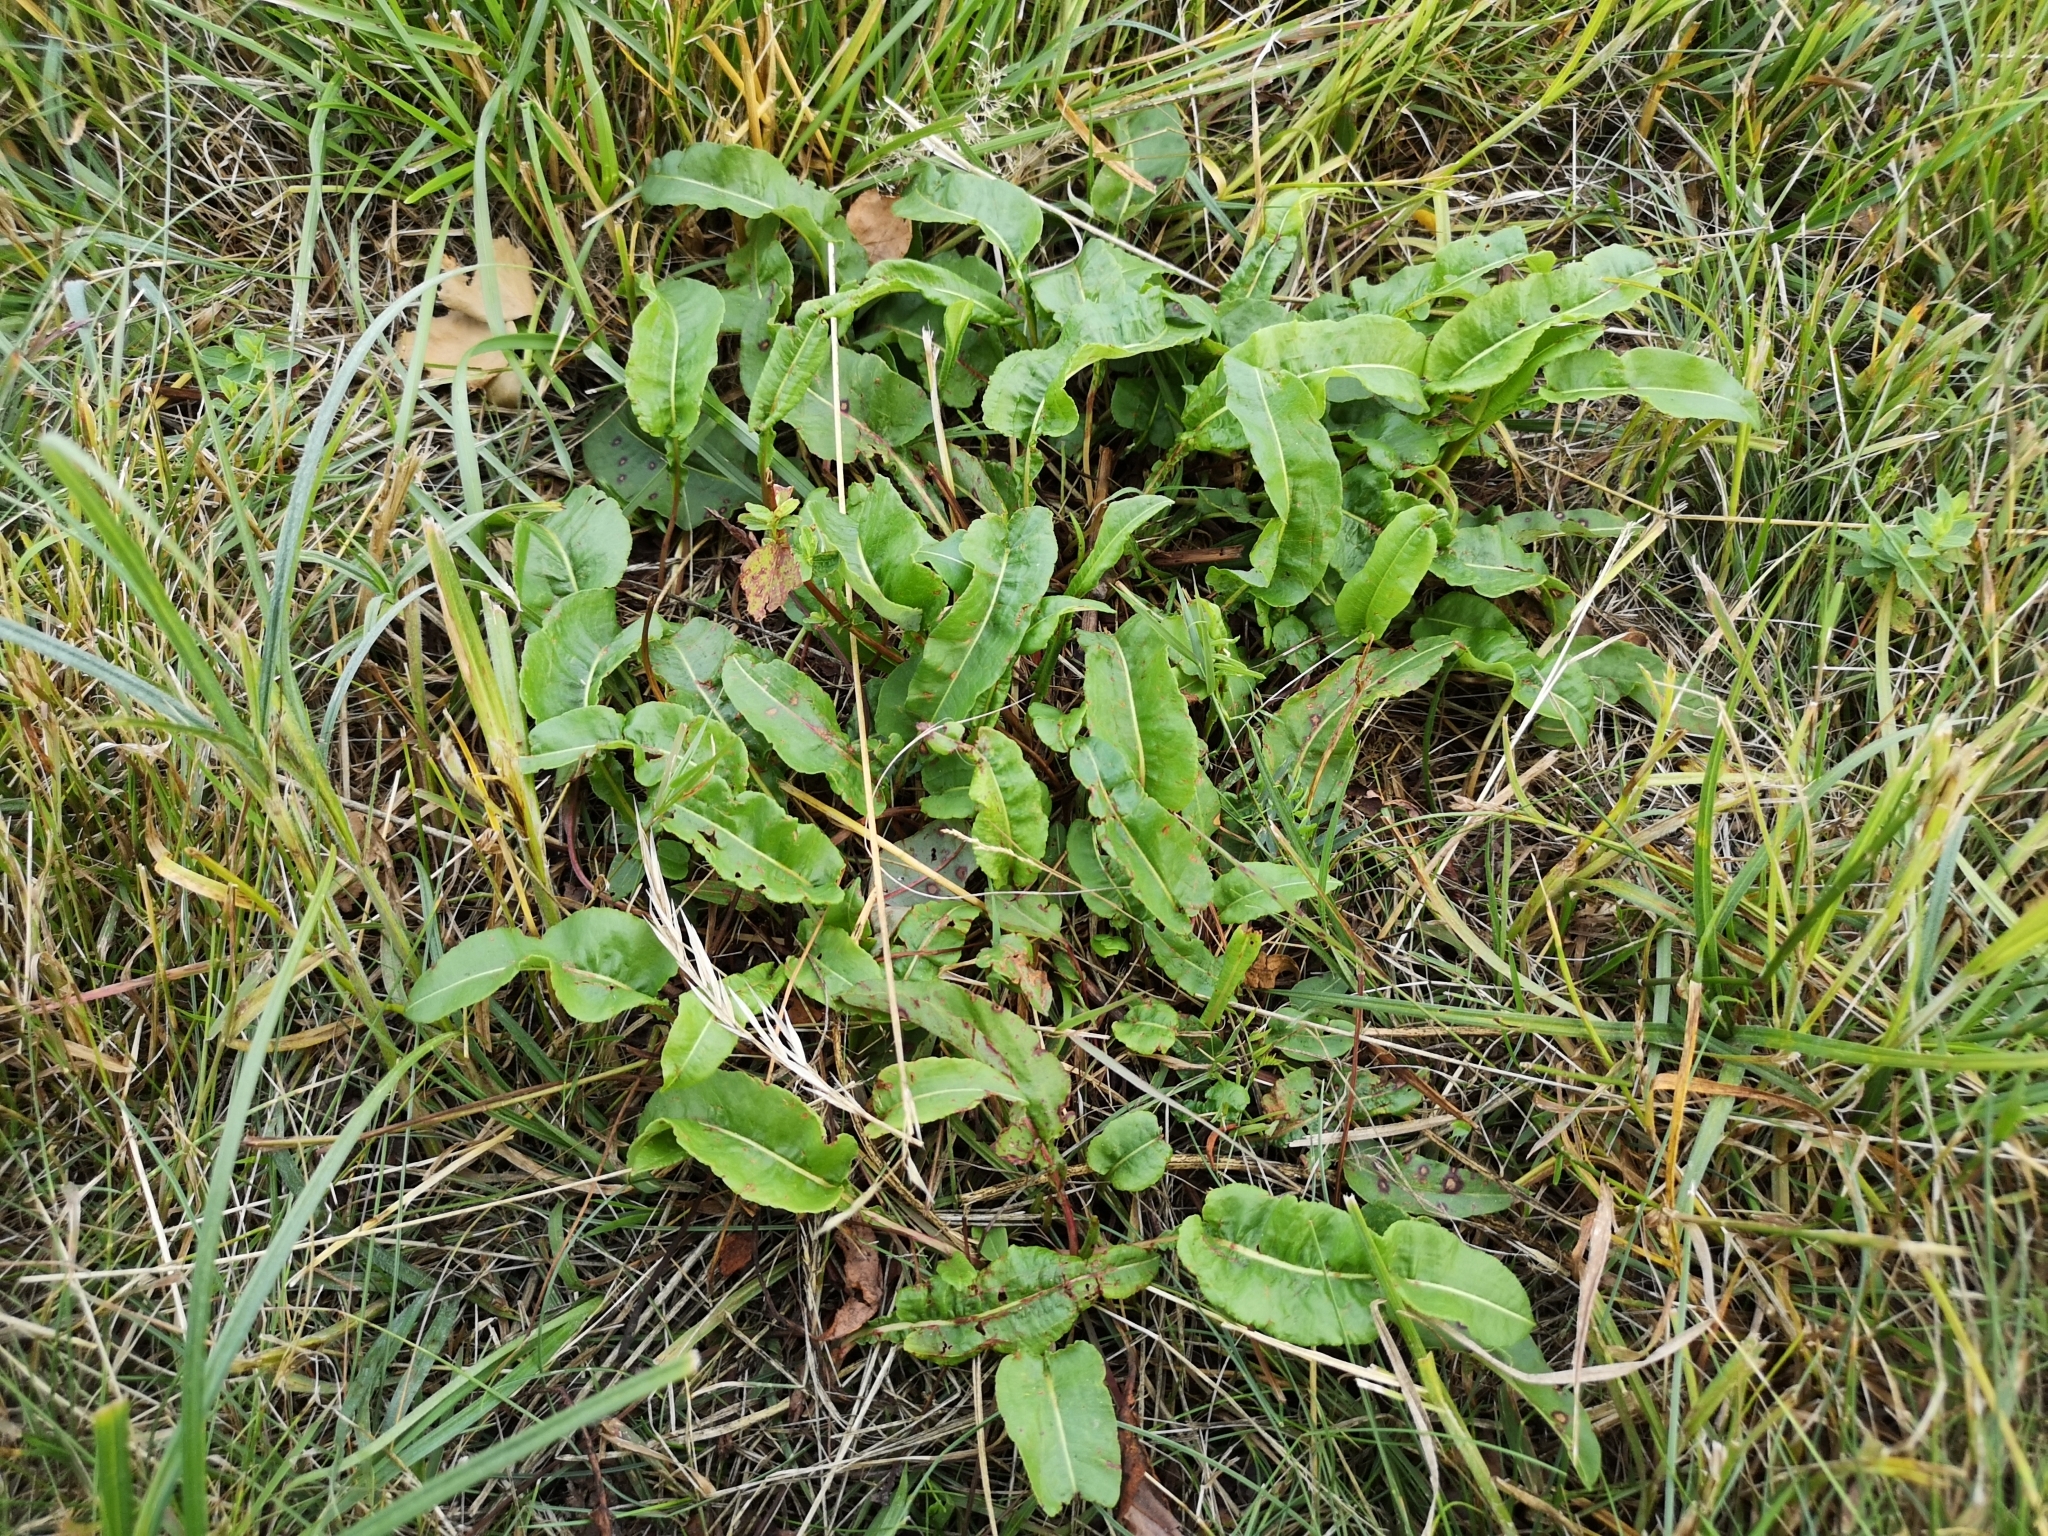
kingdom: Plantae
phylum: Tracheophyta
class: Magnoliopsida
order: Caryophyllales
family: Polygonaceae
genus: Bistorta
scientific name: Bistorta officinalis
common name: Common bistort
